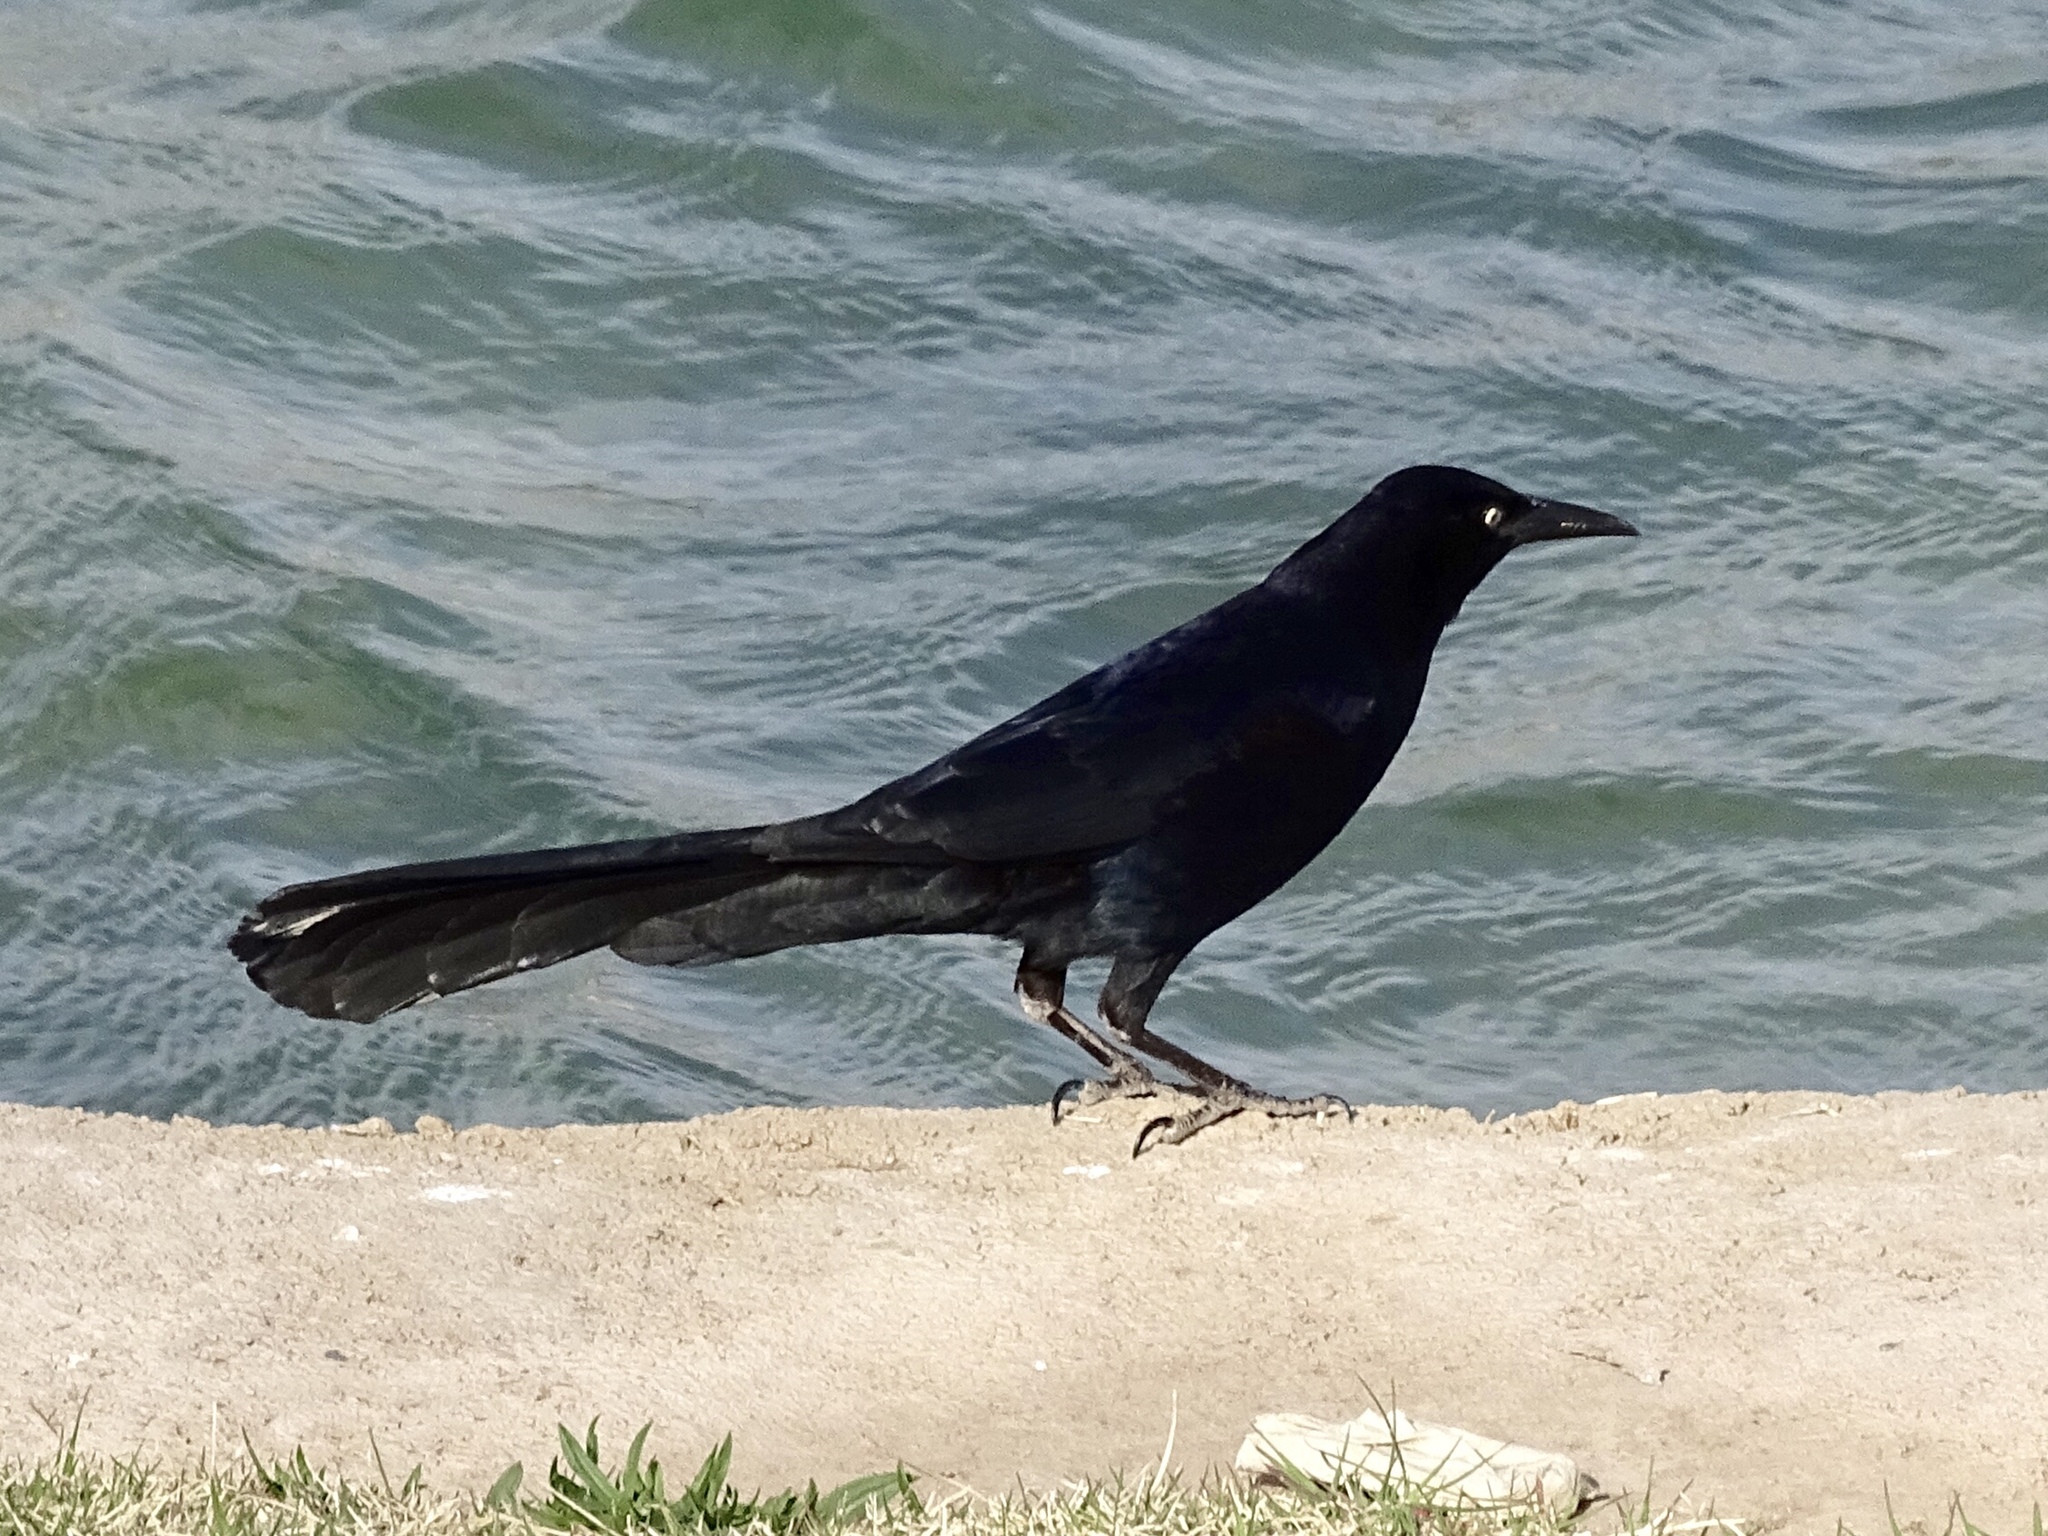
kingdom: Animalia
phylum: Chordata
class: Aves
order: Passeriformes
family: Icteridae
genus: Quiscalus
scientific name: Quiscalus mexicanus
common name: Great-tailed grackle
